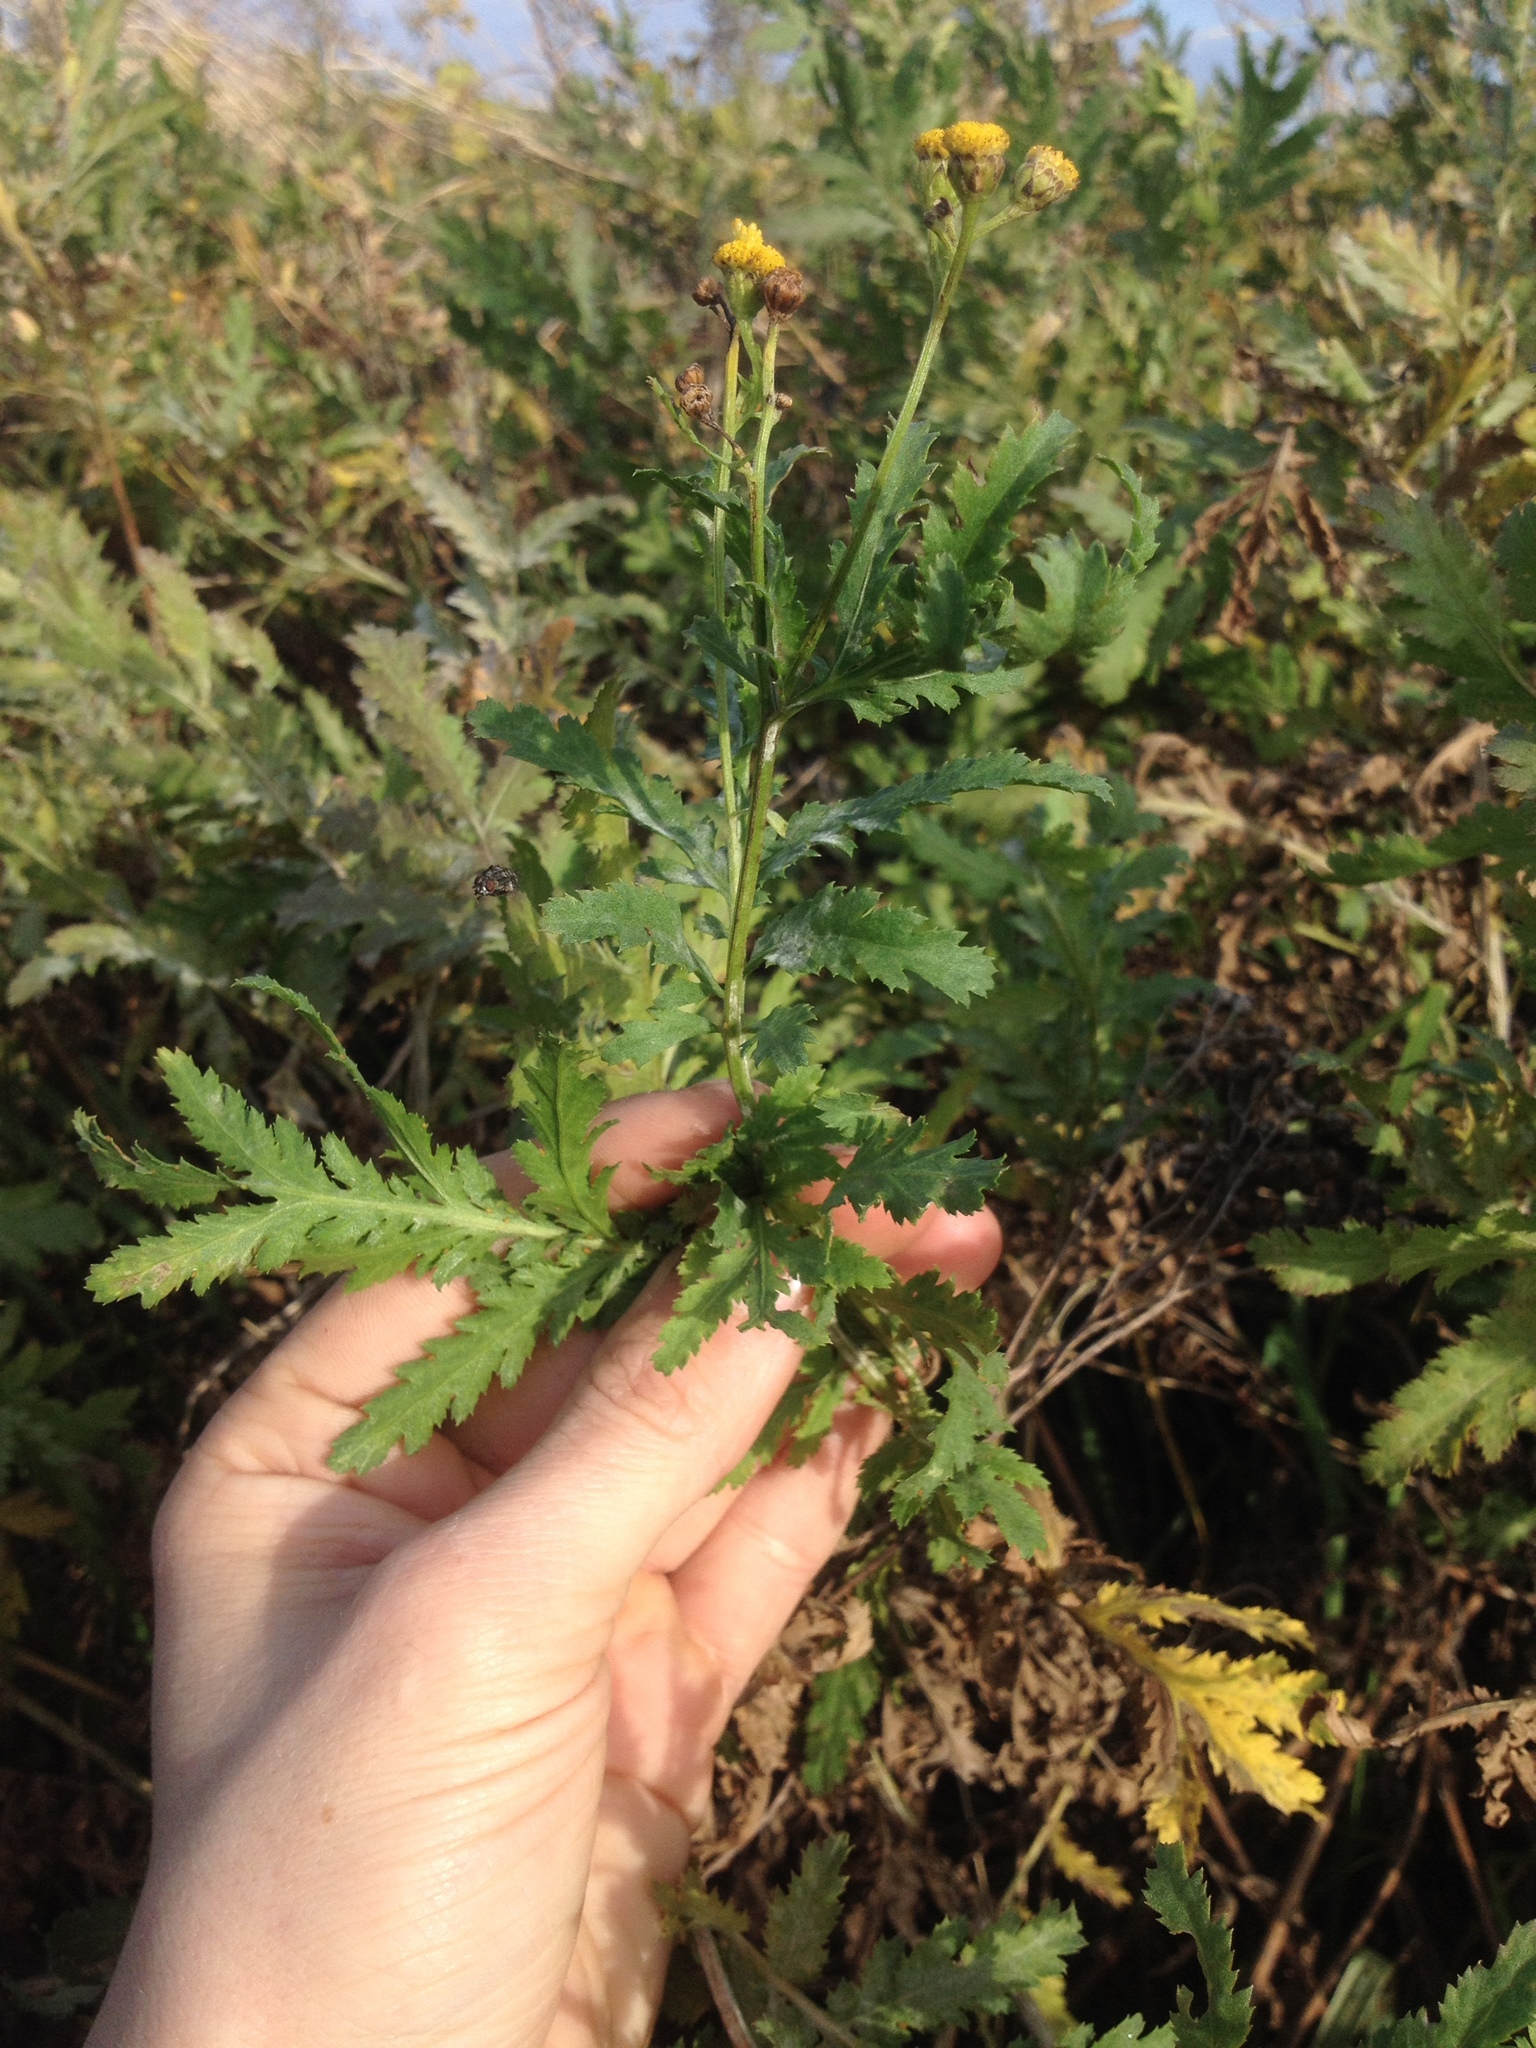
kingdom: Plantae
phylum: Tracheophyta
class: Magnoliopsida
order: Asterales
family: Asteraceae
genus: Tanacetum
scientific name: Tanacetum vulgare
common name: Common tansy
